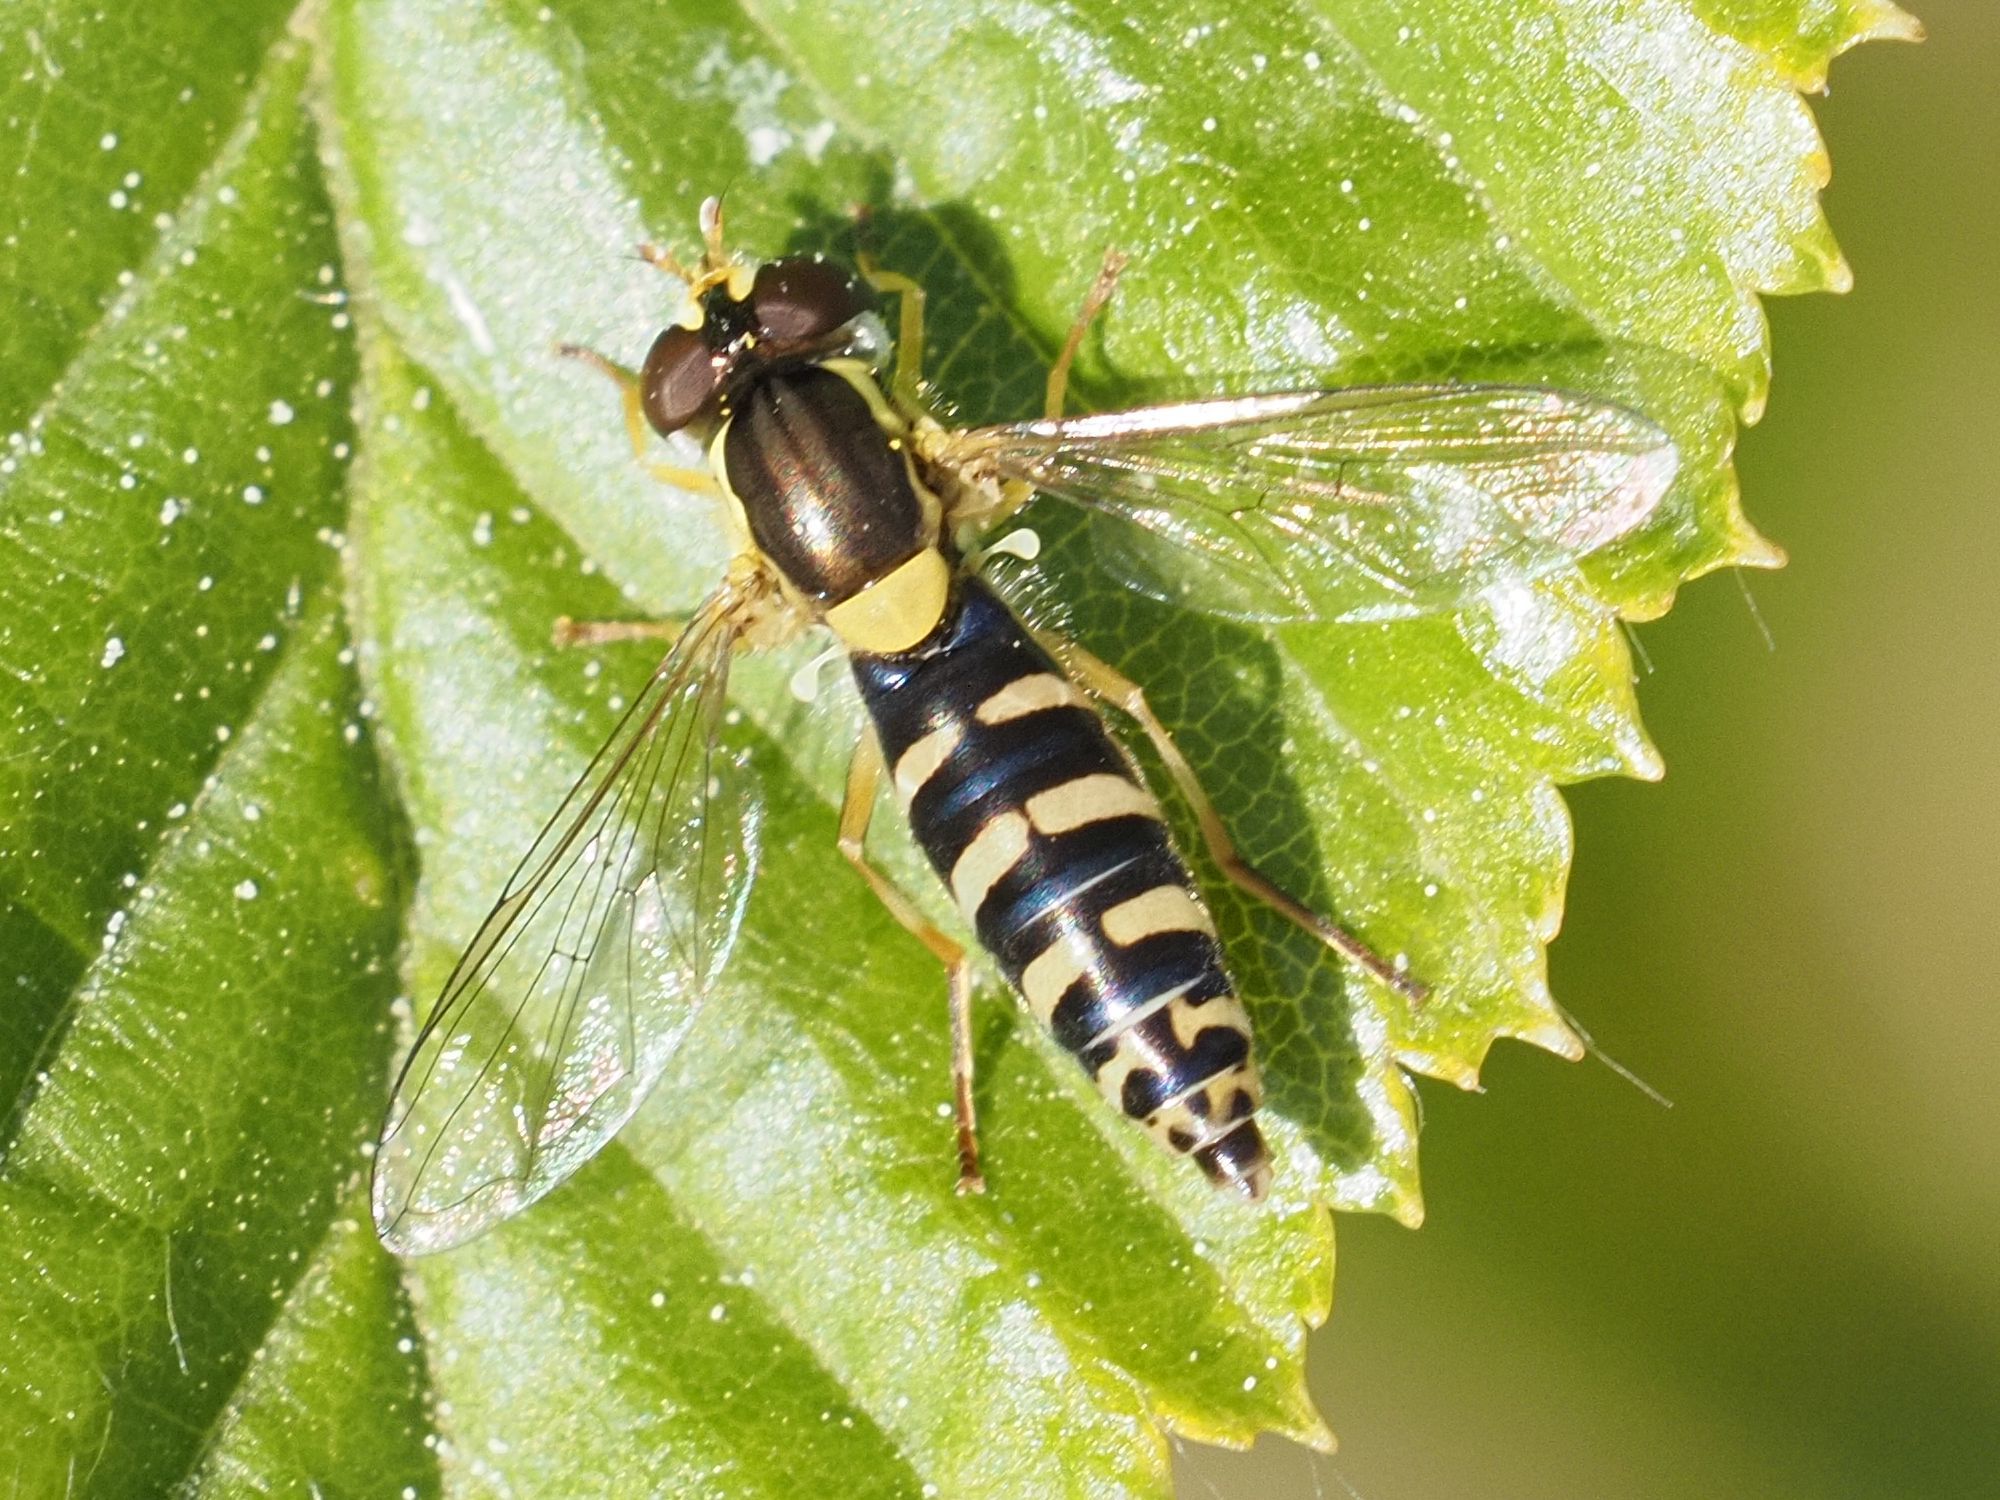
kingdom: Animalia
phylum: Arthropoda
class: Insecta
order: Diptera
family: Syrphidae
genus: Sphaerophoria
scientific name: Sphaerophoria
